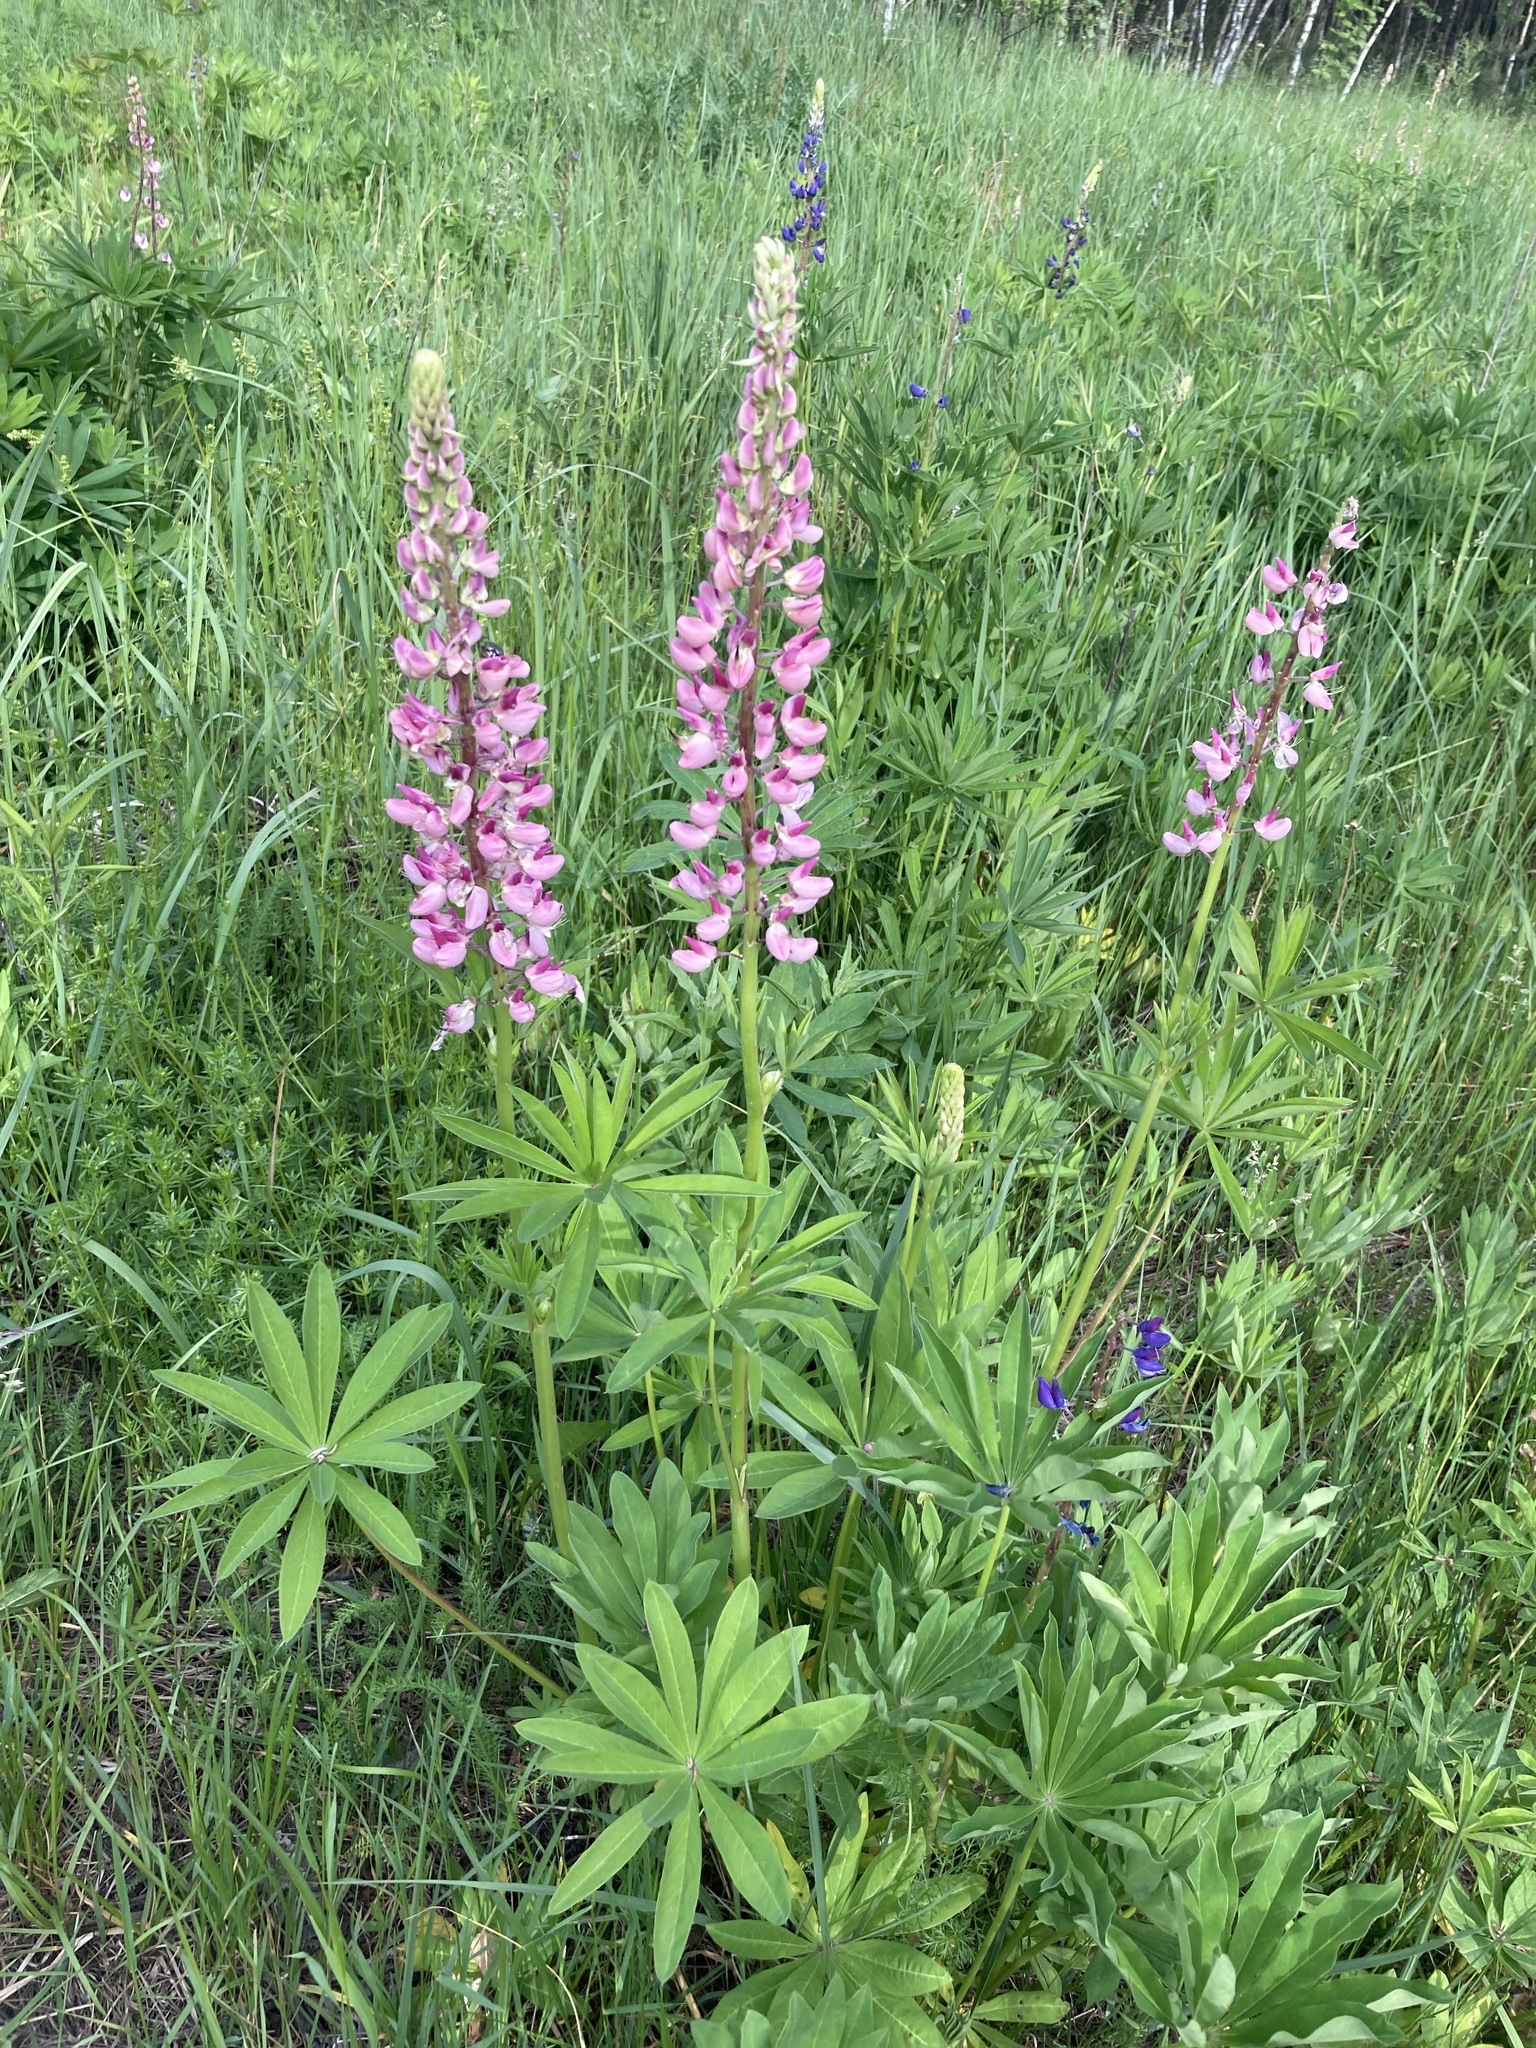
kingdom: Plantae
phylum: Tracheophyta
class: Magnoliopsida
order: Fabales
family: Fabaceae
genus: Lupinus
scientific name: Lupinus polyphyllus
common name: Garden lupin
